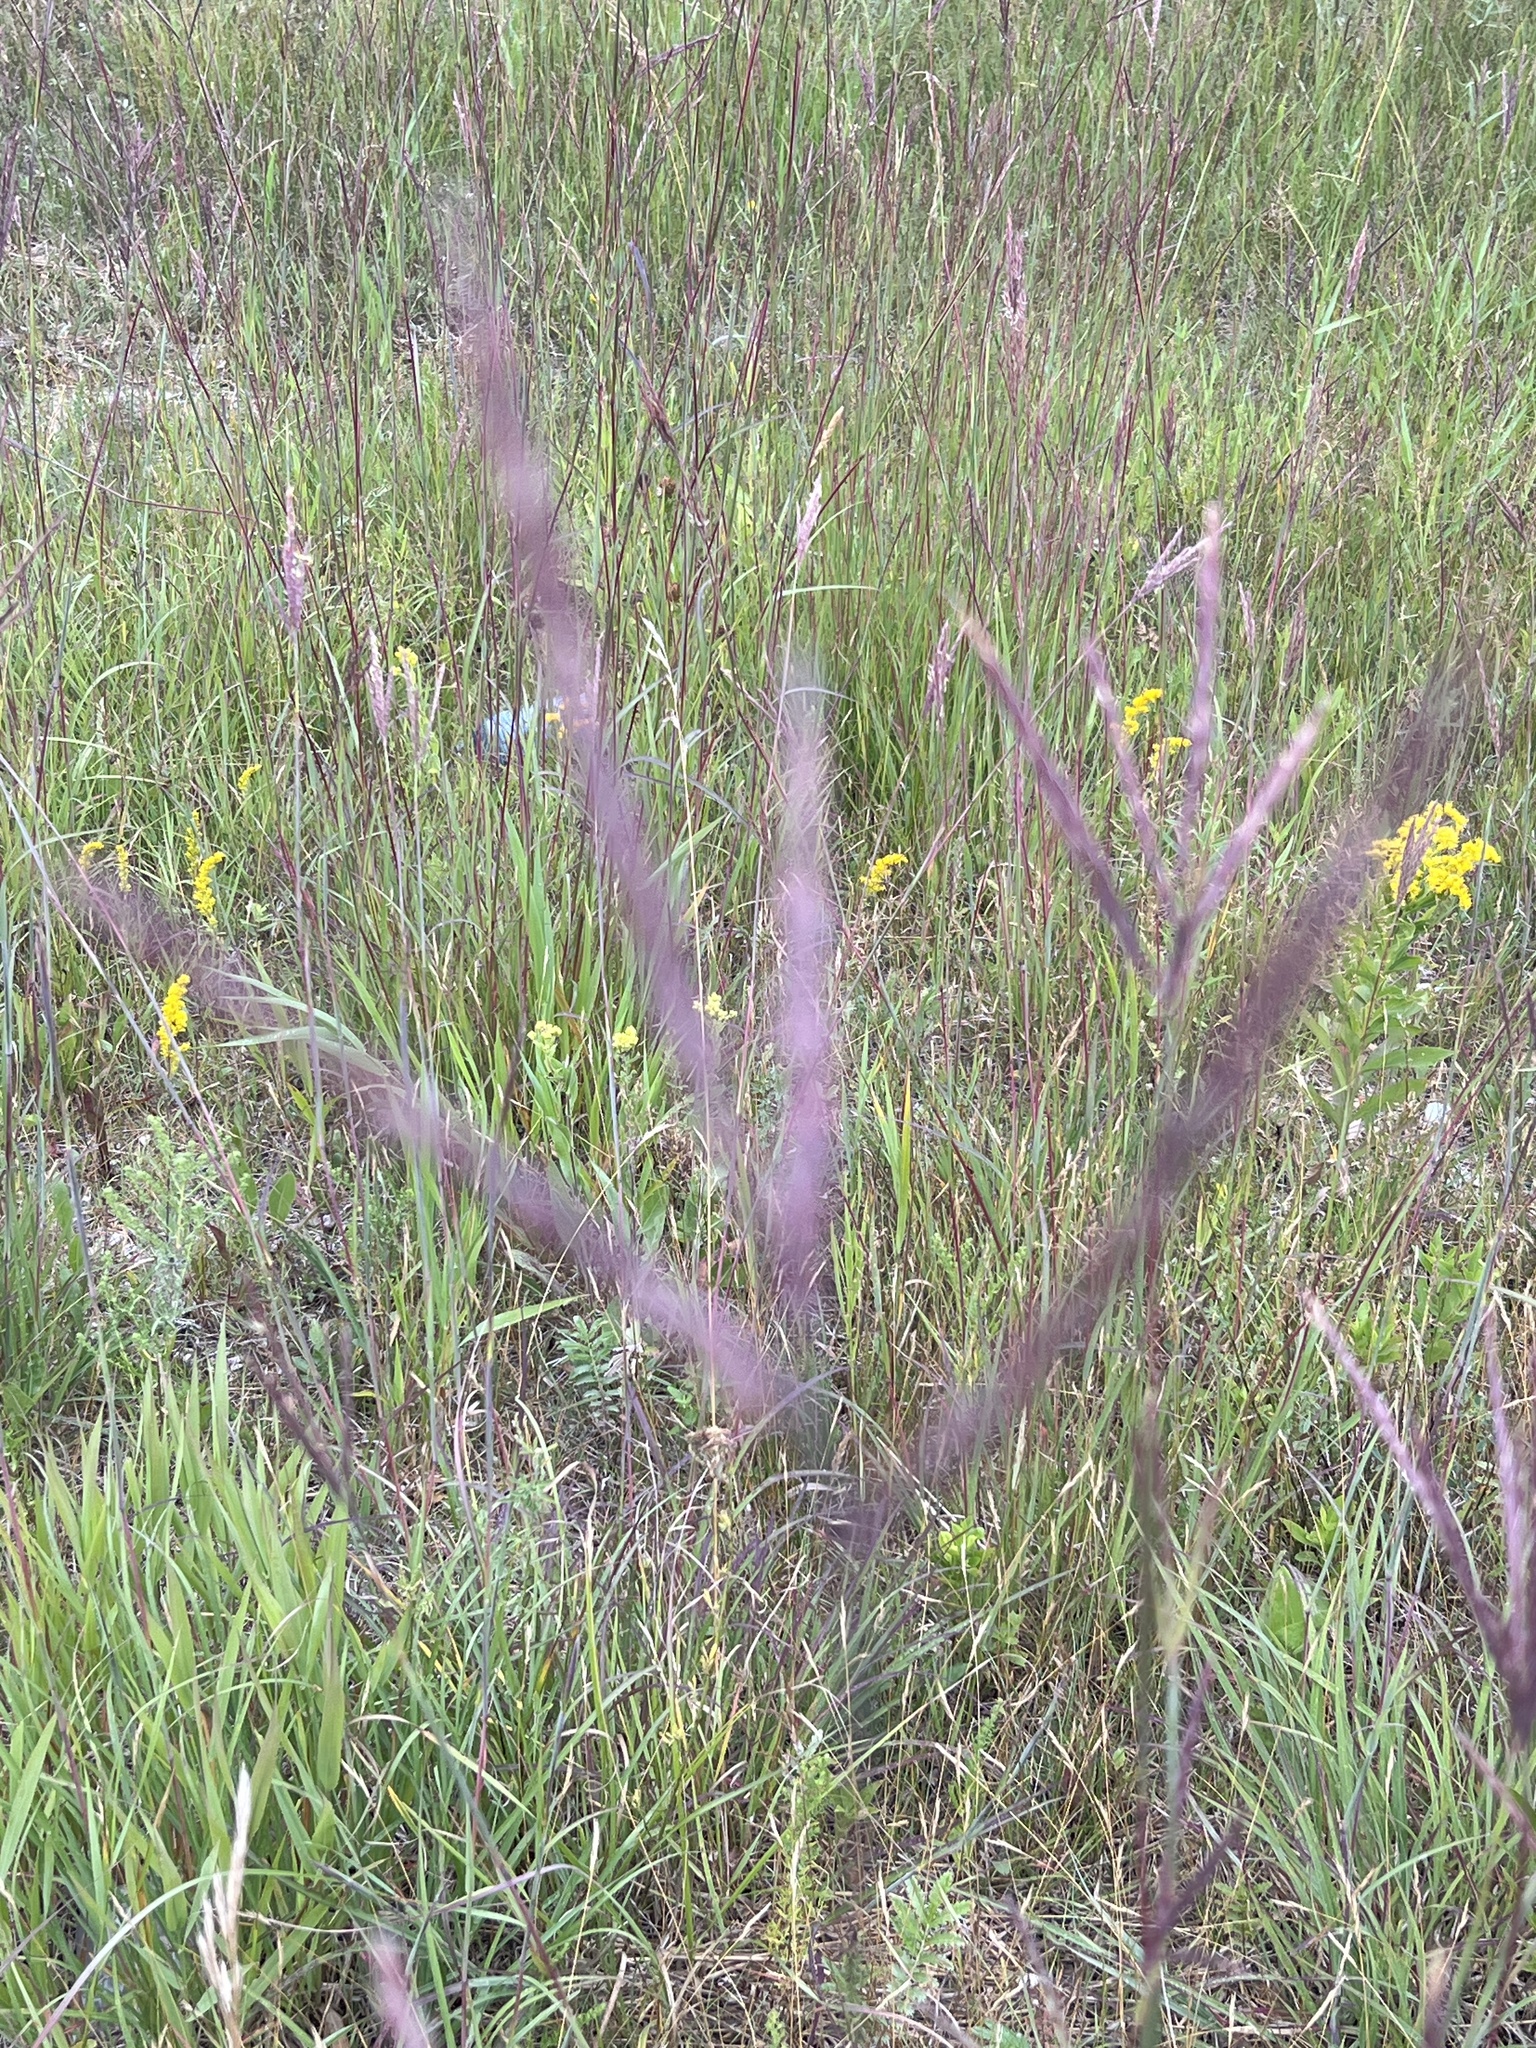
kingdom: Plantae
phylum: Tracheophyta
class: Liliopsida
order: Poales
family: Poaceae
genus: Andropogon
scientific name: Andropogon gerardi
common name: Big bluestem
